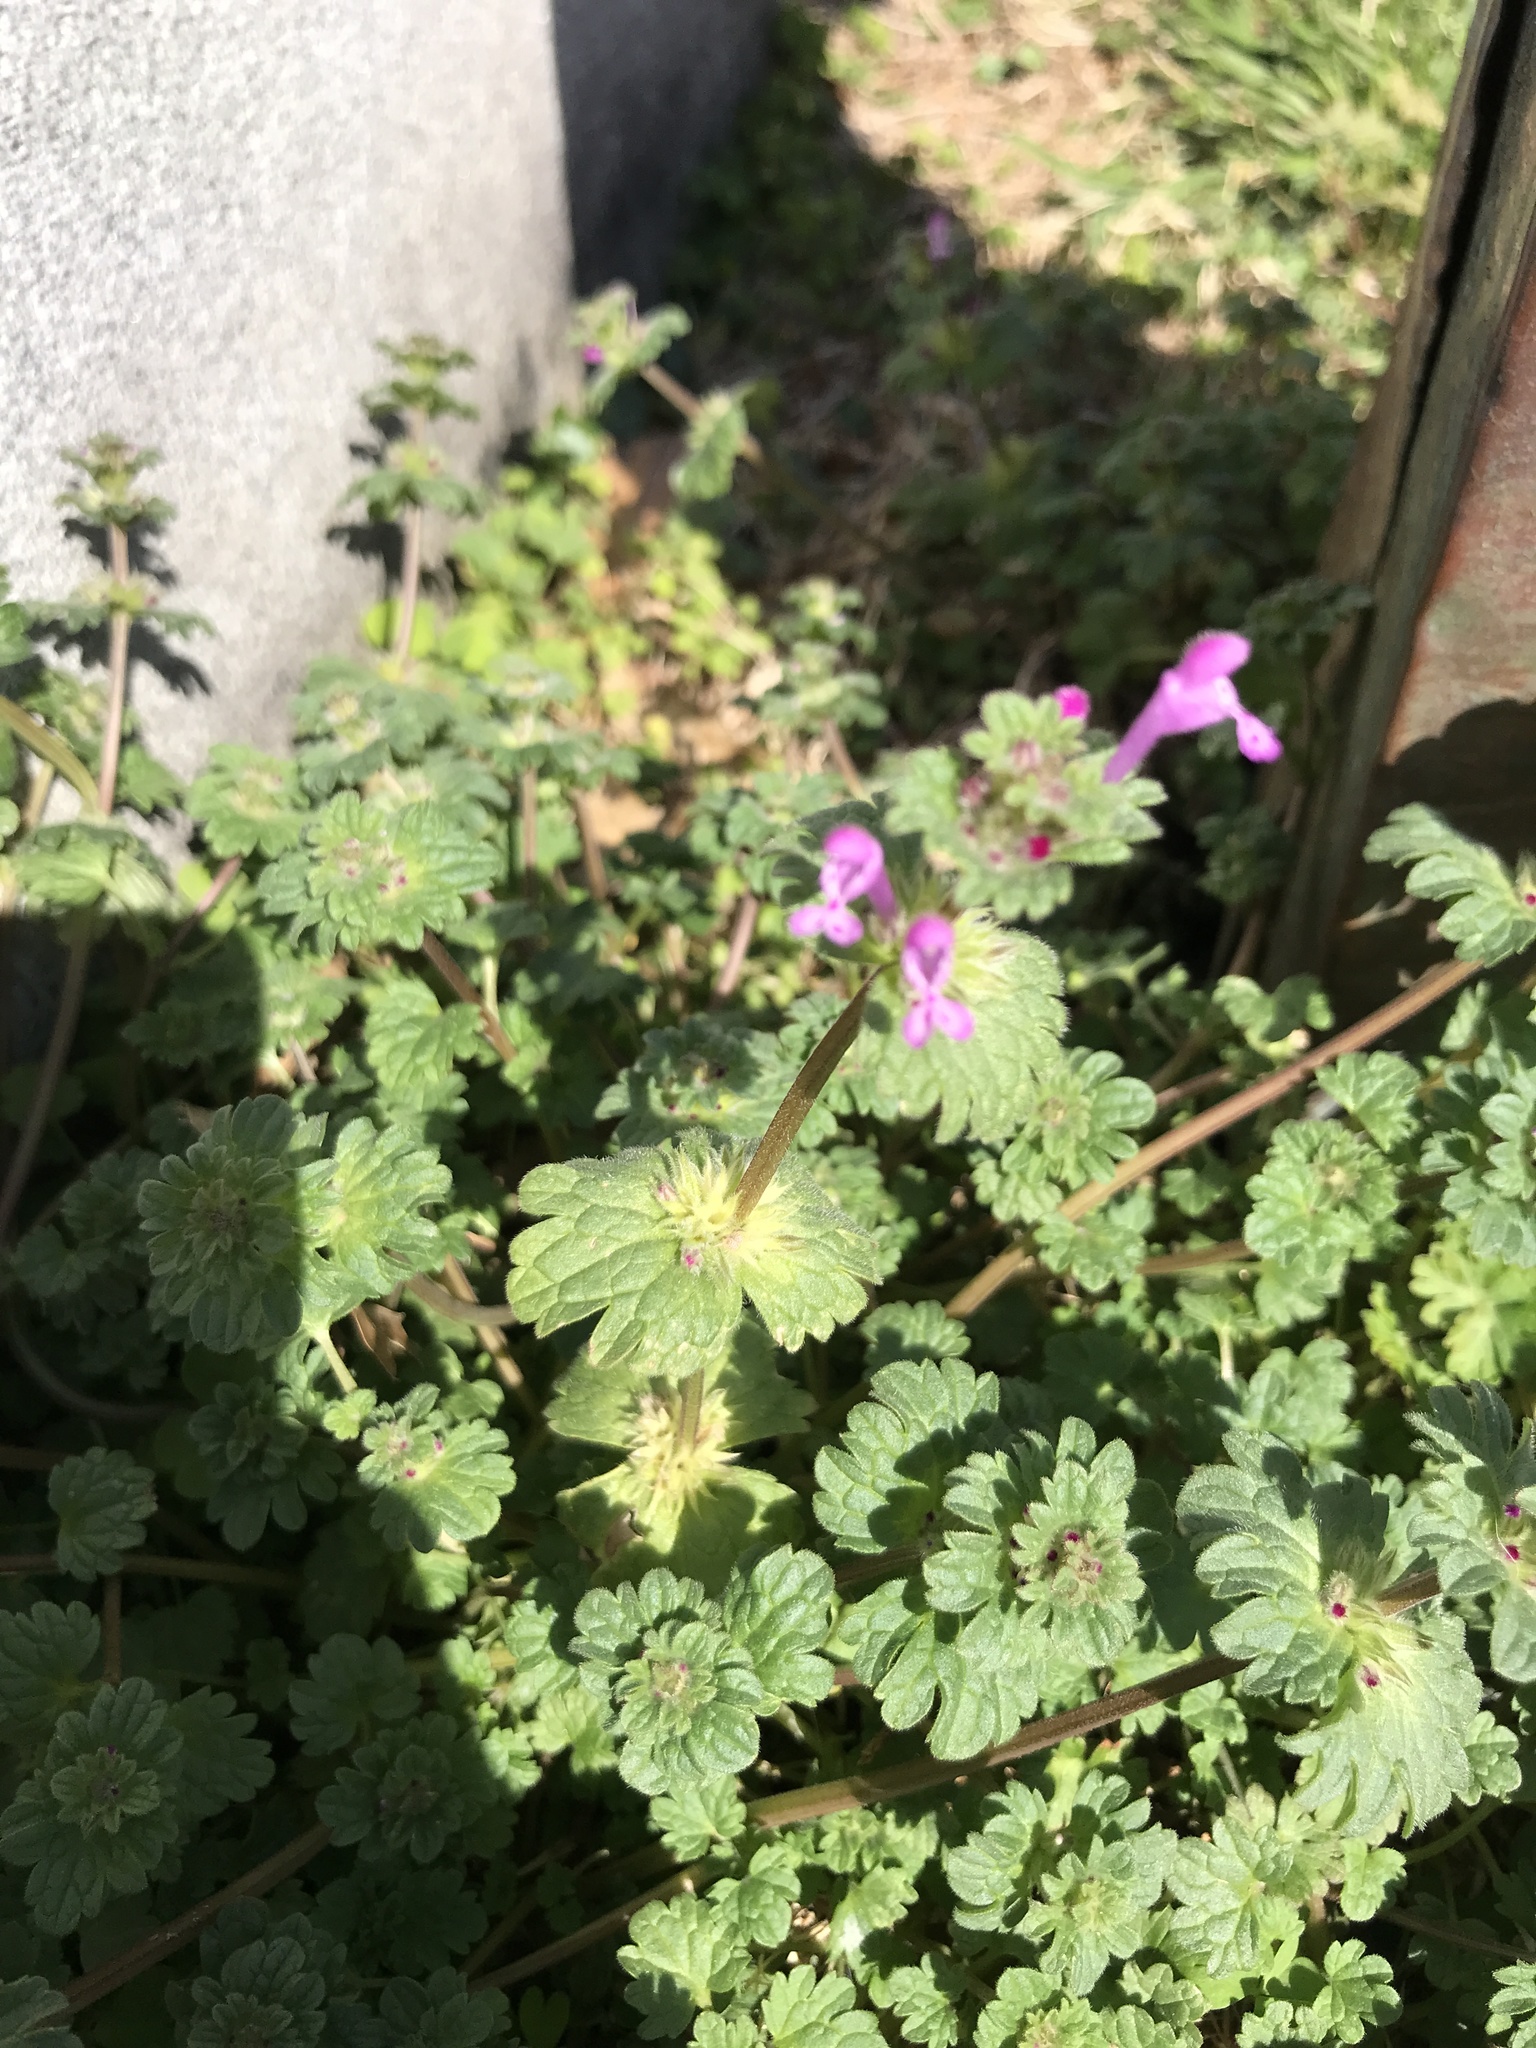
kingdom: Plantae
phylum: Tracheophyta
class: Magnoliopsida
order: Lamiales
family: Lamiaceae
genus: Lamium
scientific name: Lamium amplexicaule
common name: Henbit dead-nettle
